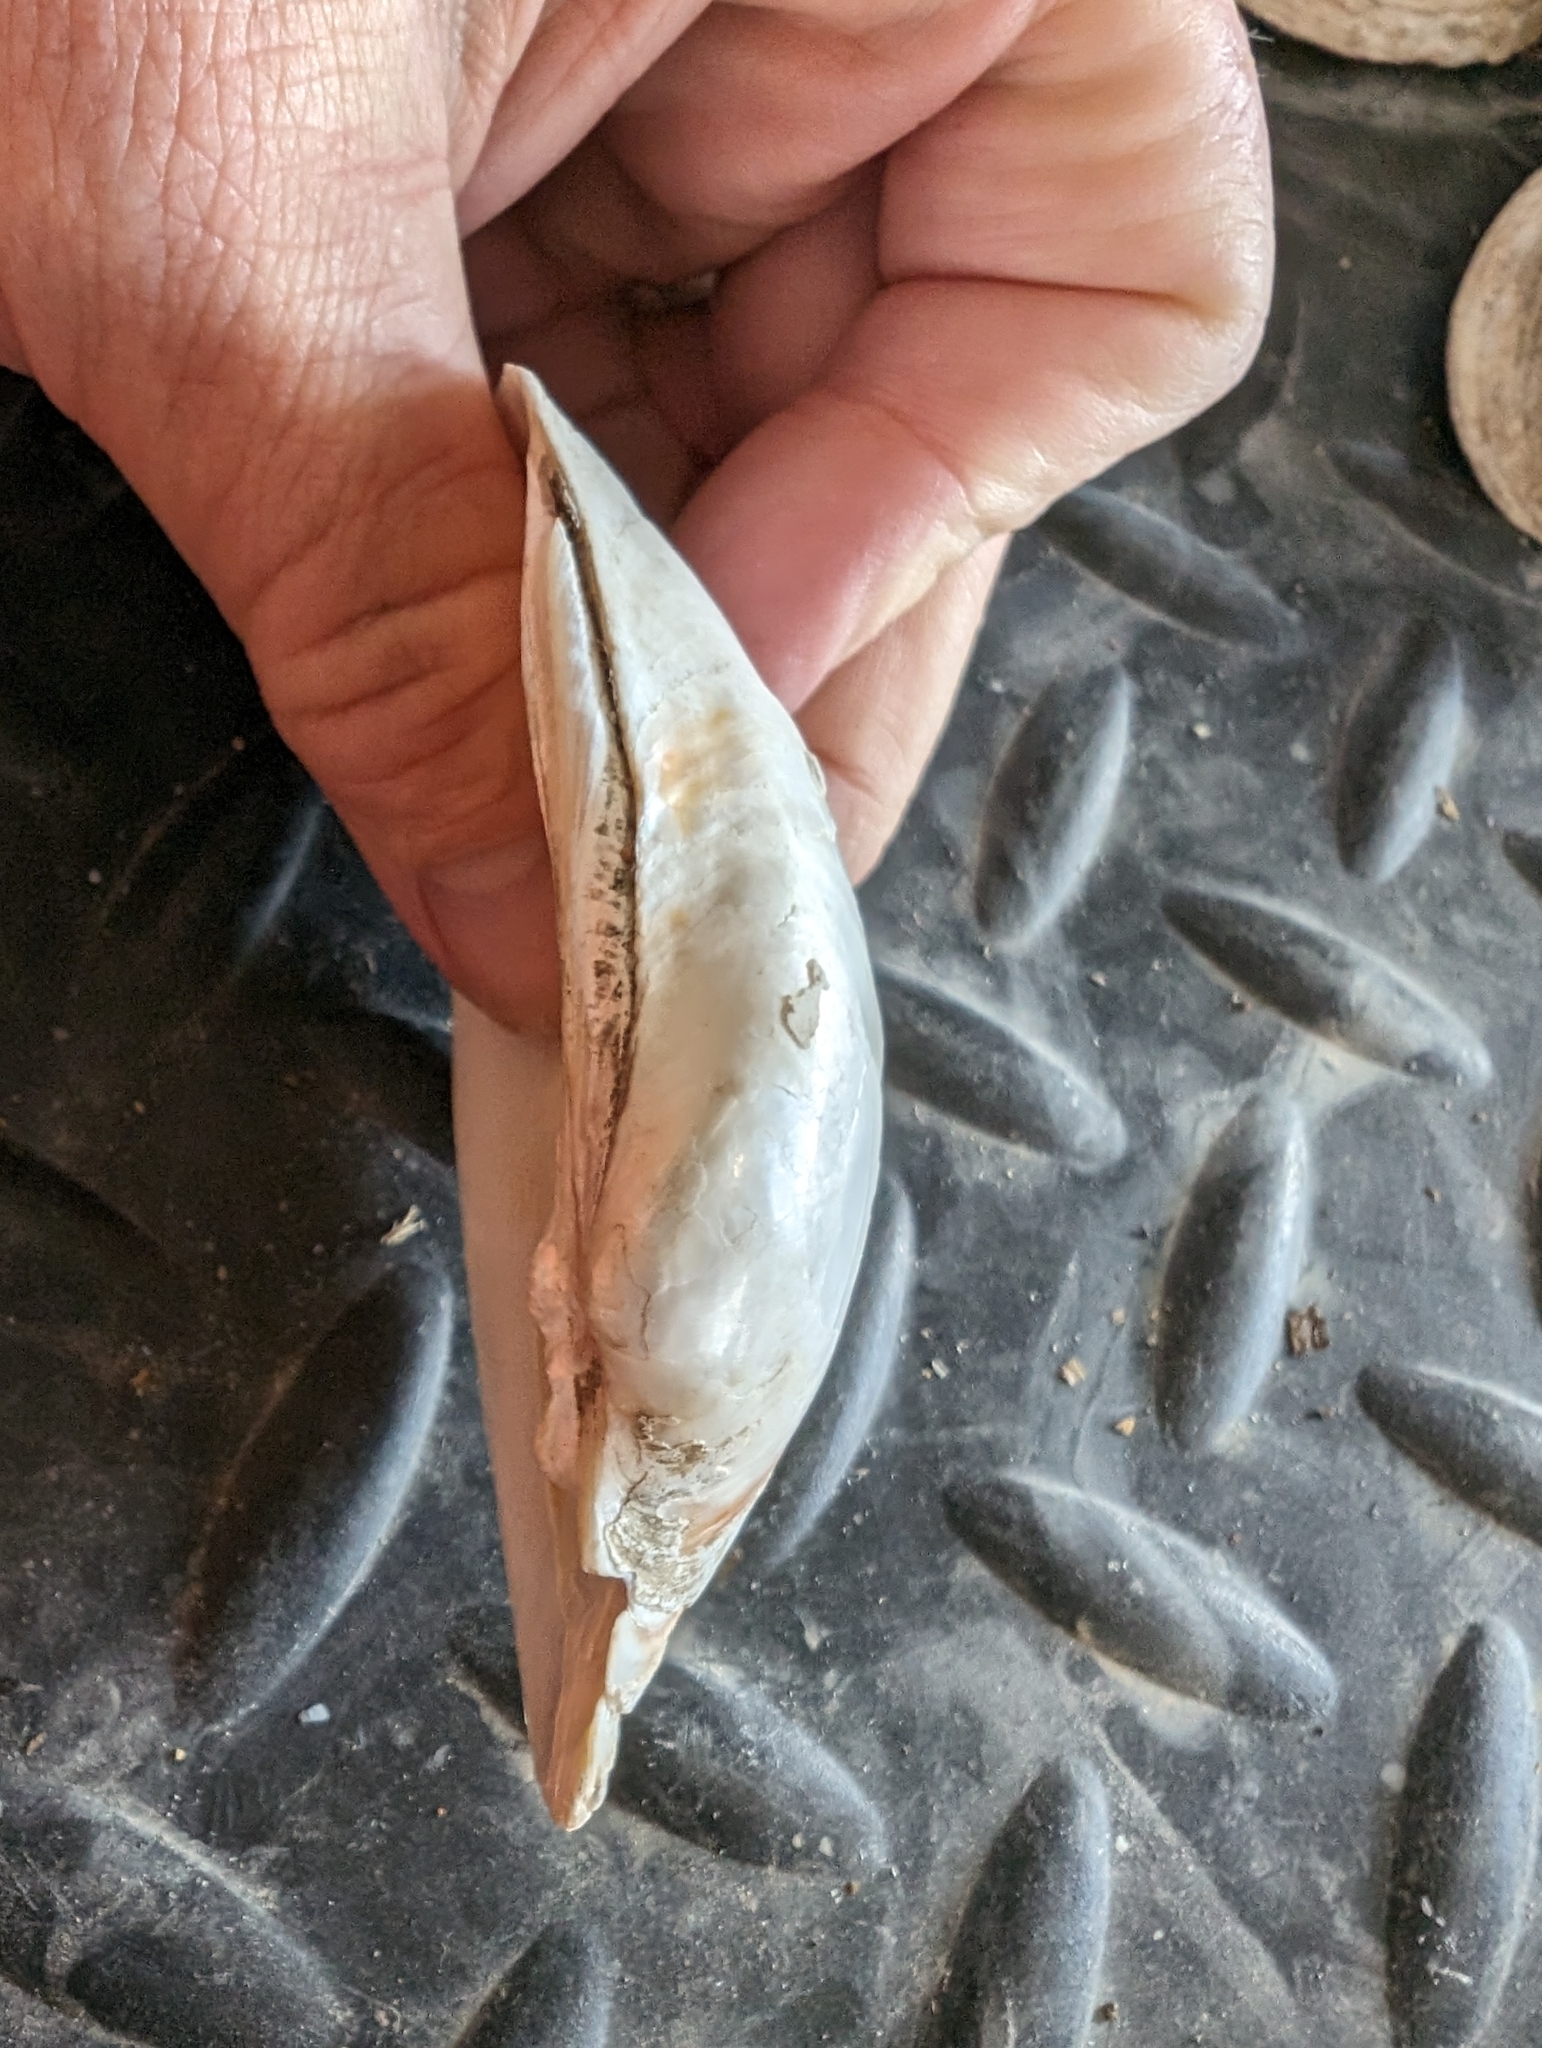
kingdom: Animalia
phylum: Mollusca
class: Bivalvia
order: Unionida
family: Unionidae
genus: Lampsilis
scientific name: Lampsilis cardium
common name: Plain pocketbook
